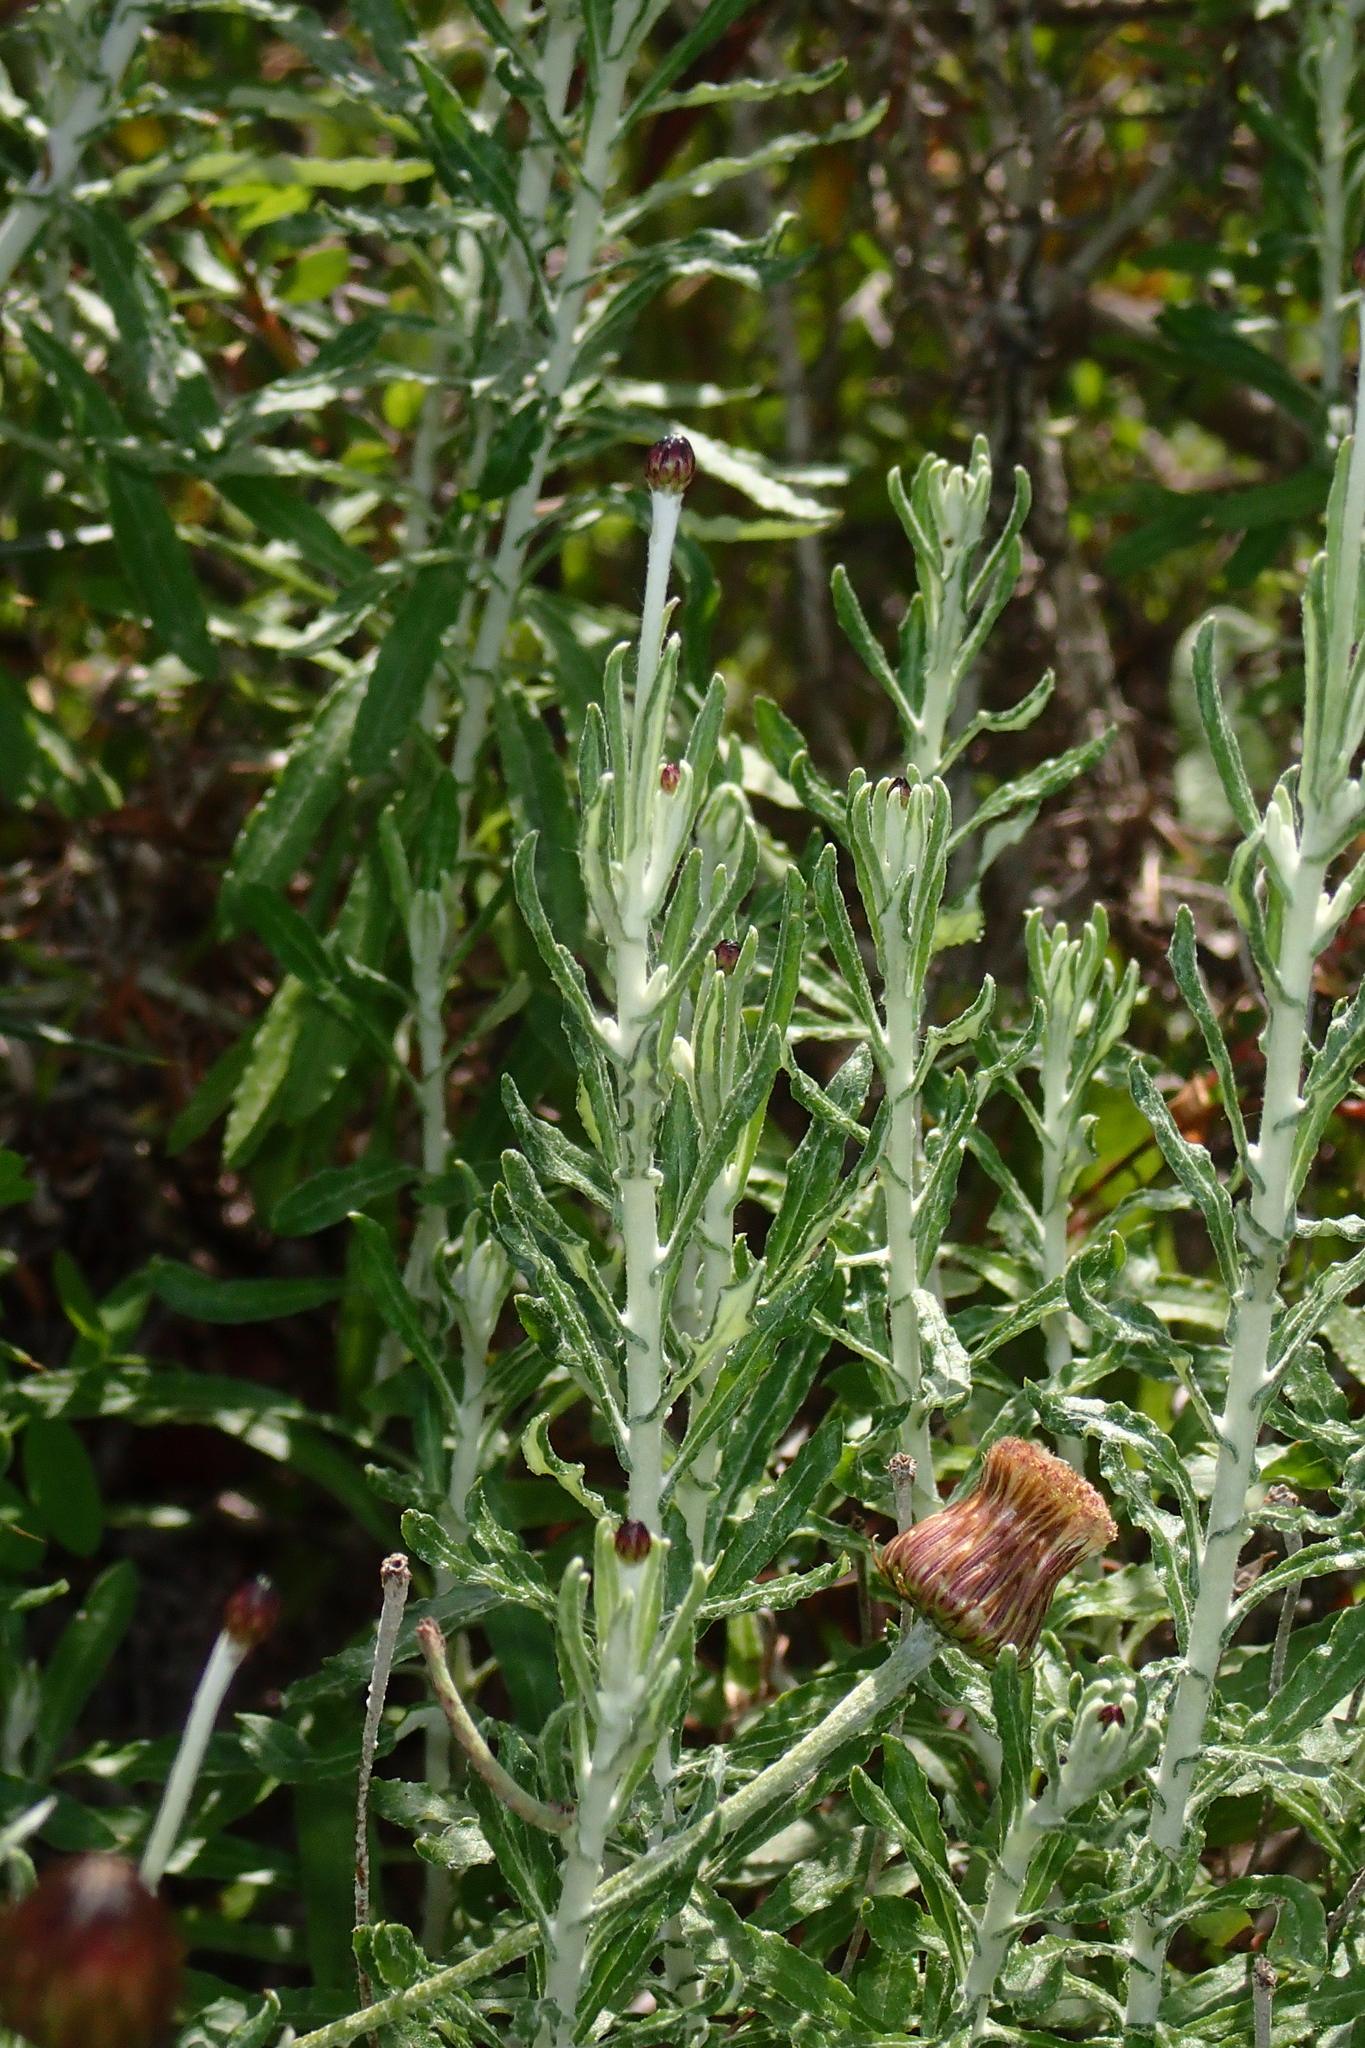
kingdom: Plantae
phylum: Tracheophyta
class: Magnoliopsida
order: Asterales
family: Asteraceae
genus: Phagnalon
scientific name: Phagnalon graecum
